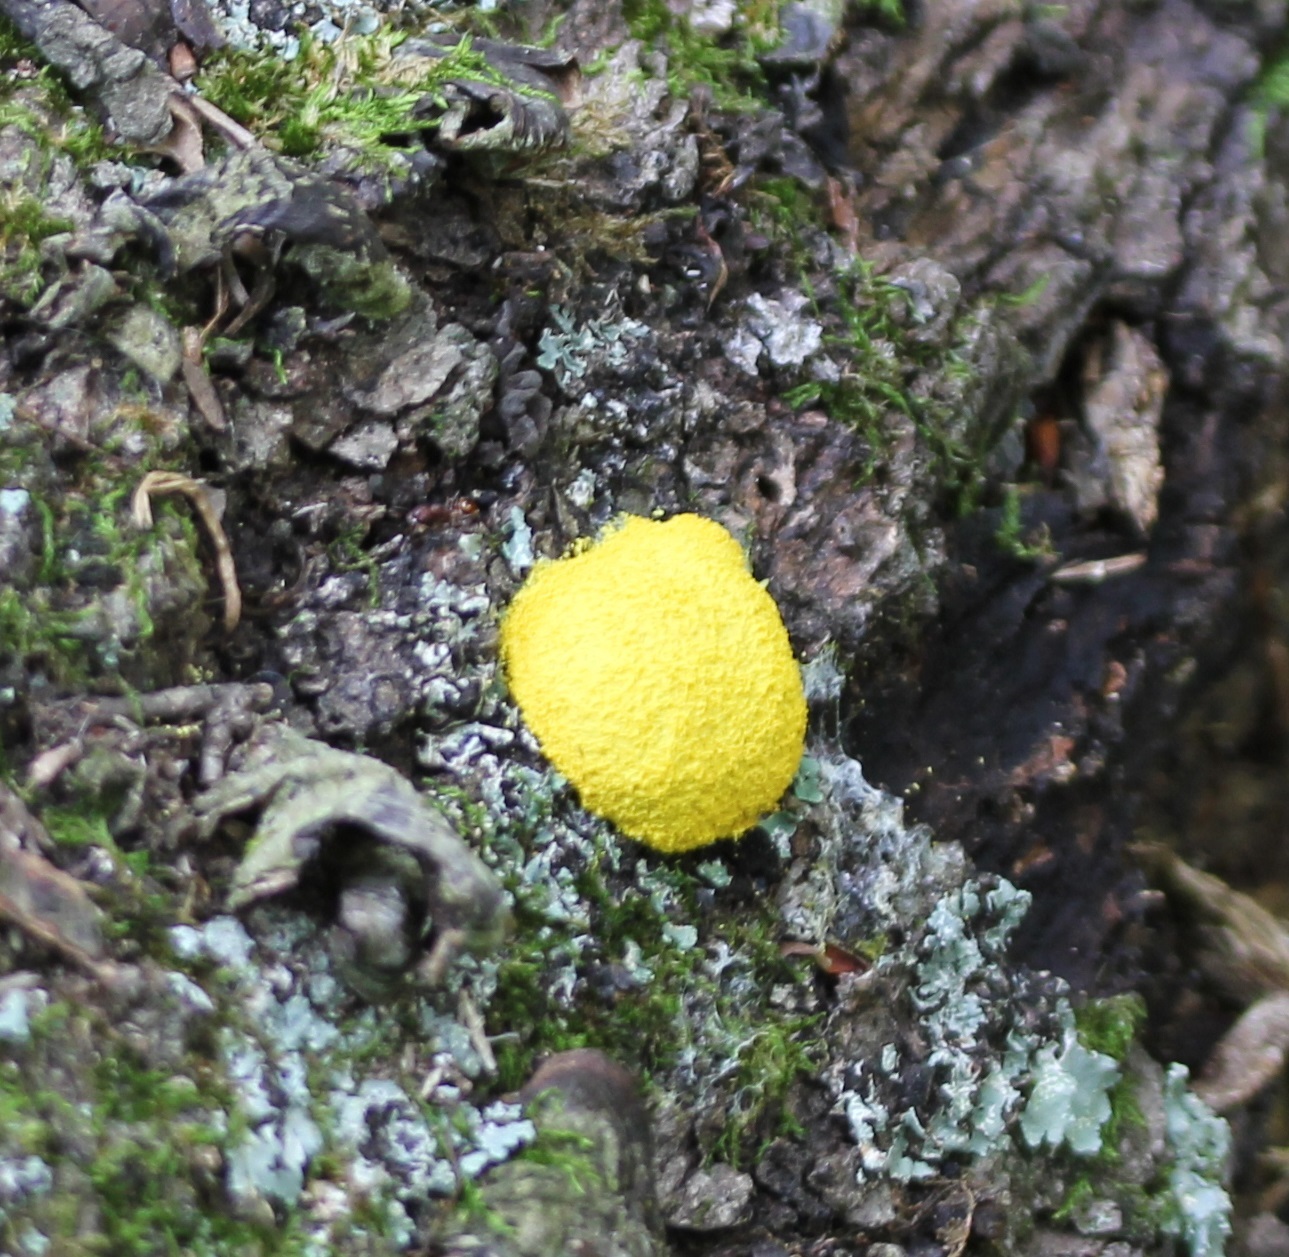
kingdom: Protozoa
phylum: Mycetozoa
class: Myxomycetes
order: Physarales
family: Physaraceae
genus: Fuligo
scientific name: Fuligo septica
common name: Dog vomit slime mold
